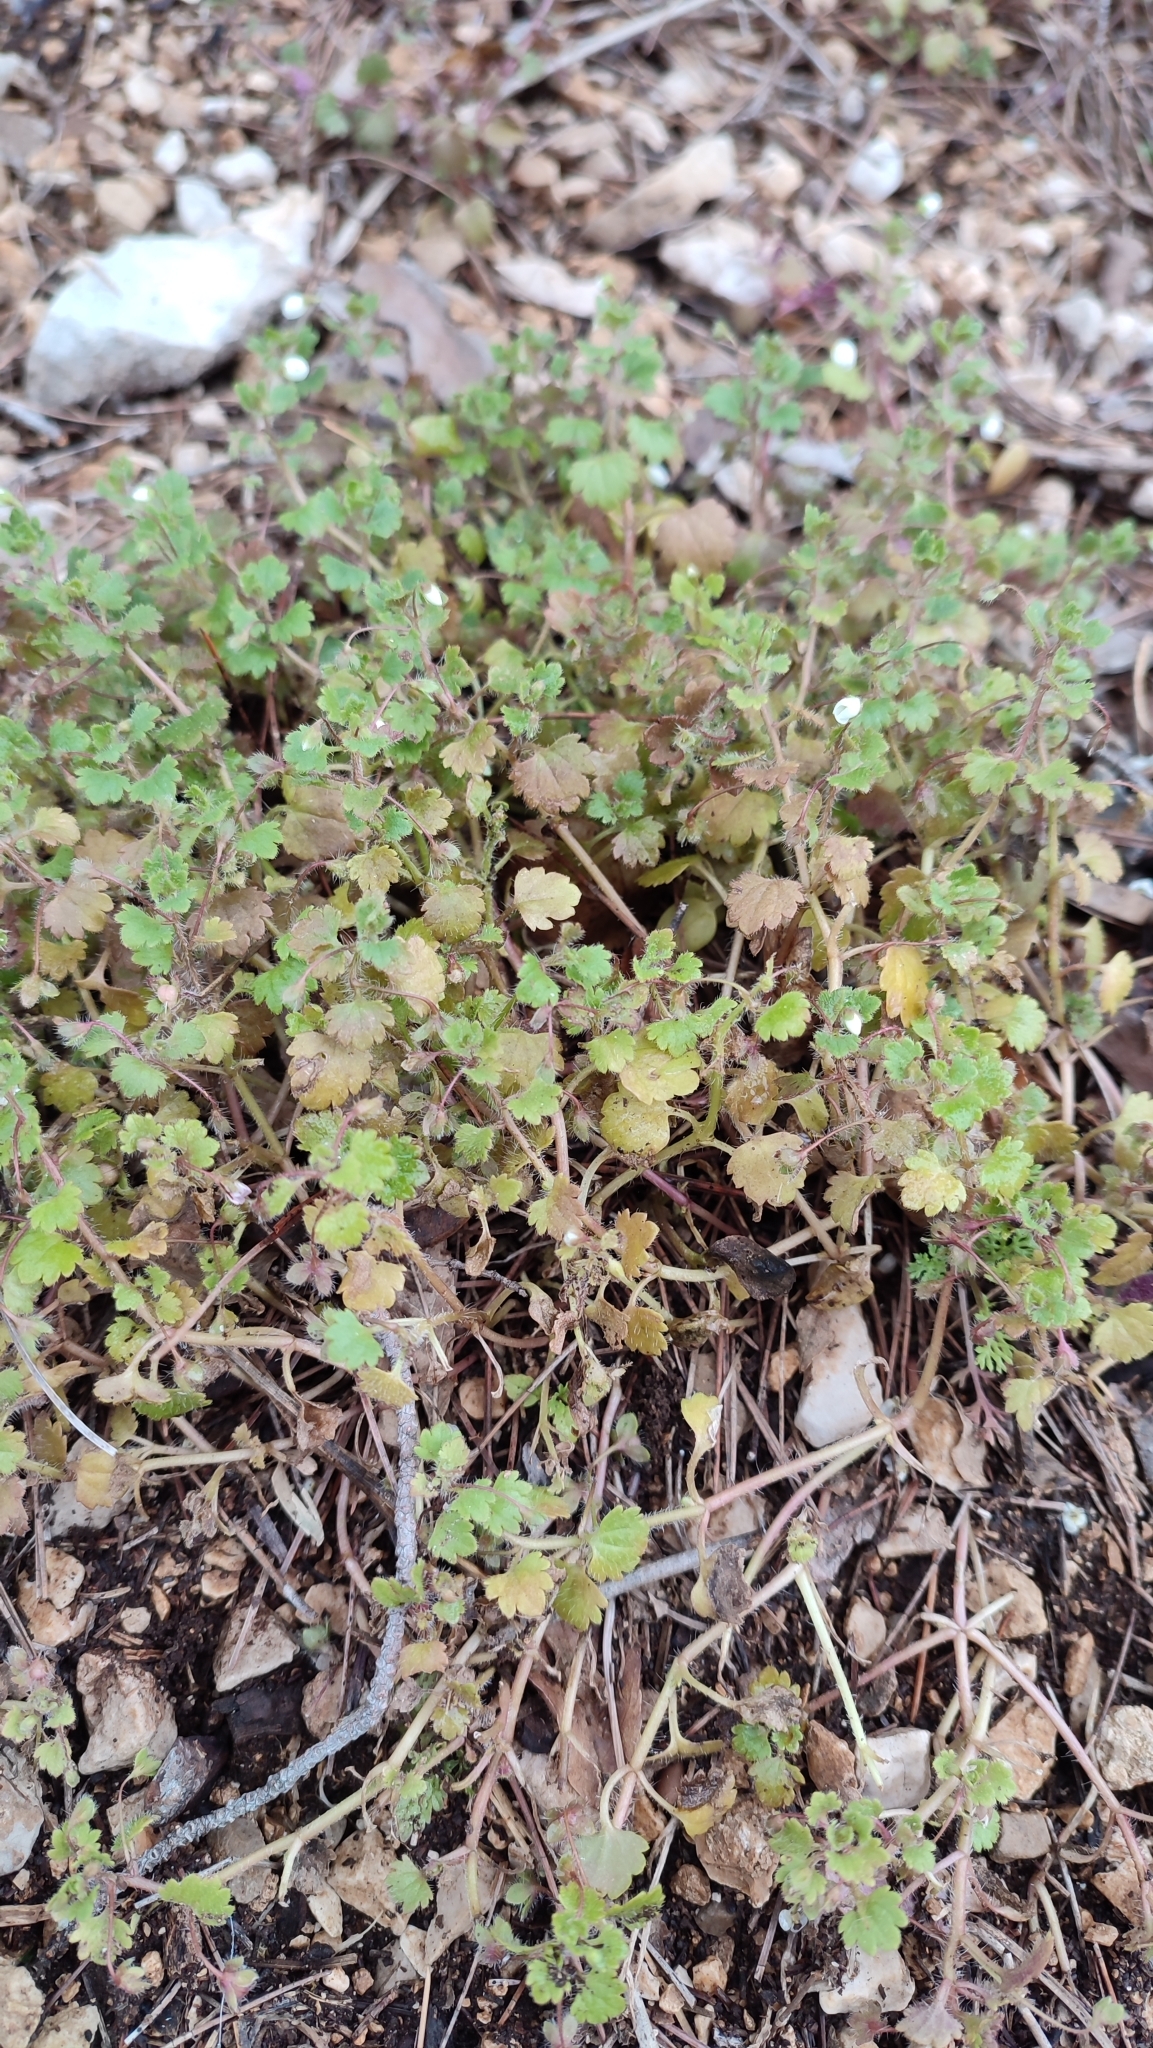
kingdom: Plantae
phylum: Tracheophyta
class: Magnoliopsida
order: Lamiales
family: Plantaginaceae
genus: Veronica
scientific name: Veronica cymbalaria
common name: Pale speedwell
